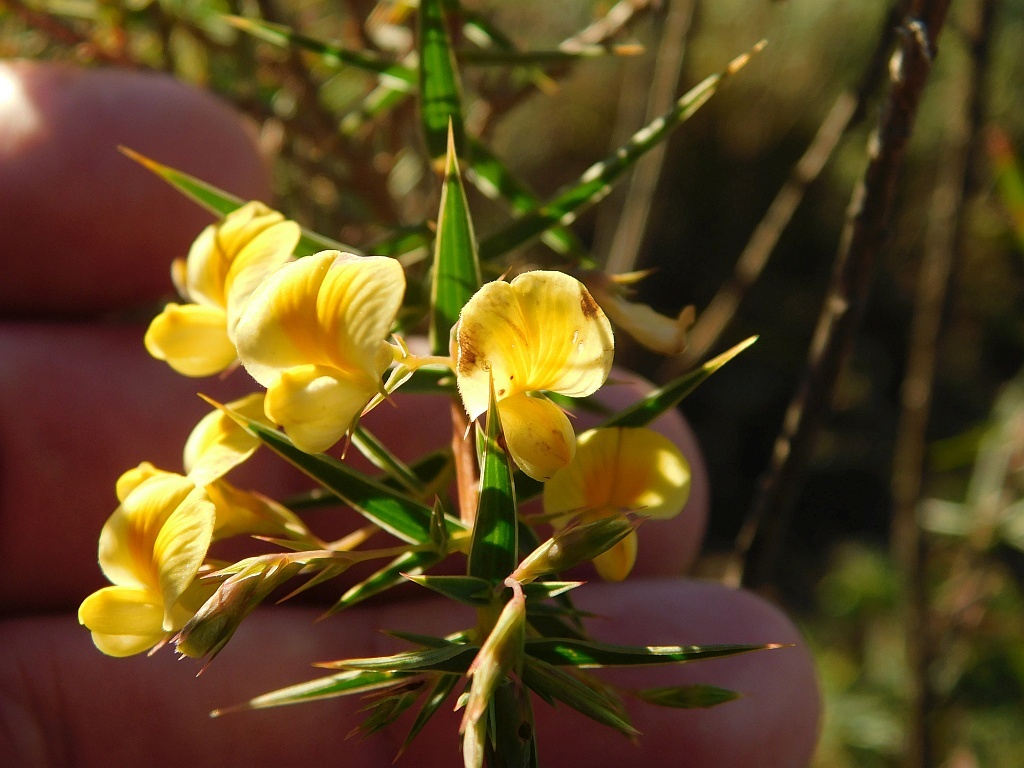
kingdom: Plantae
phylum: Tracheophyta
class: Magnoliopsida
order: Fabales
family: Fabaceae
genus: Aspalathus
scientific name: Aspalathus alpestris
